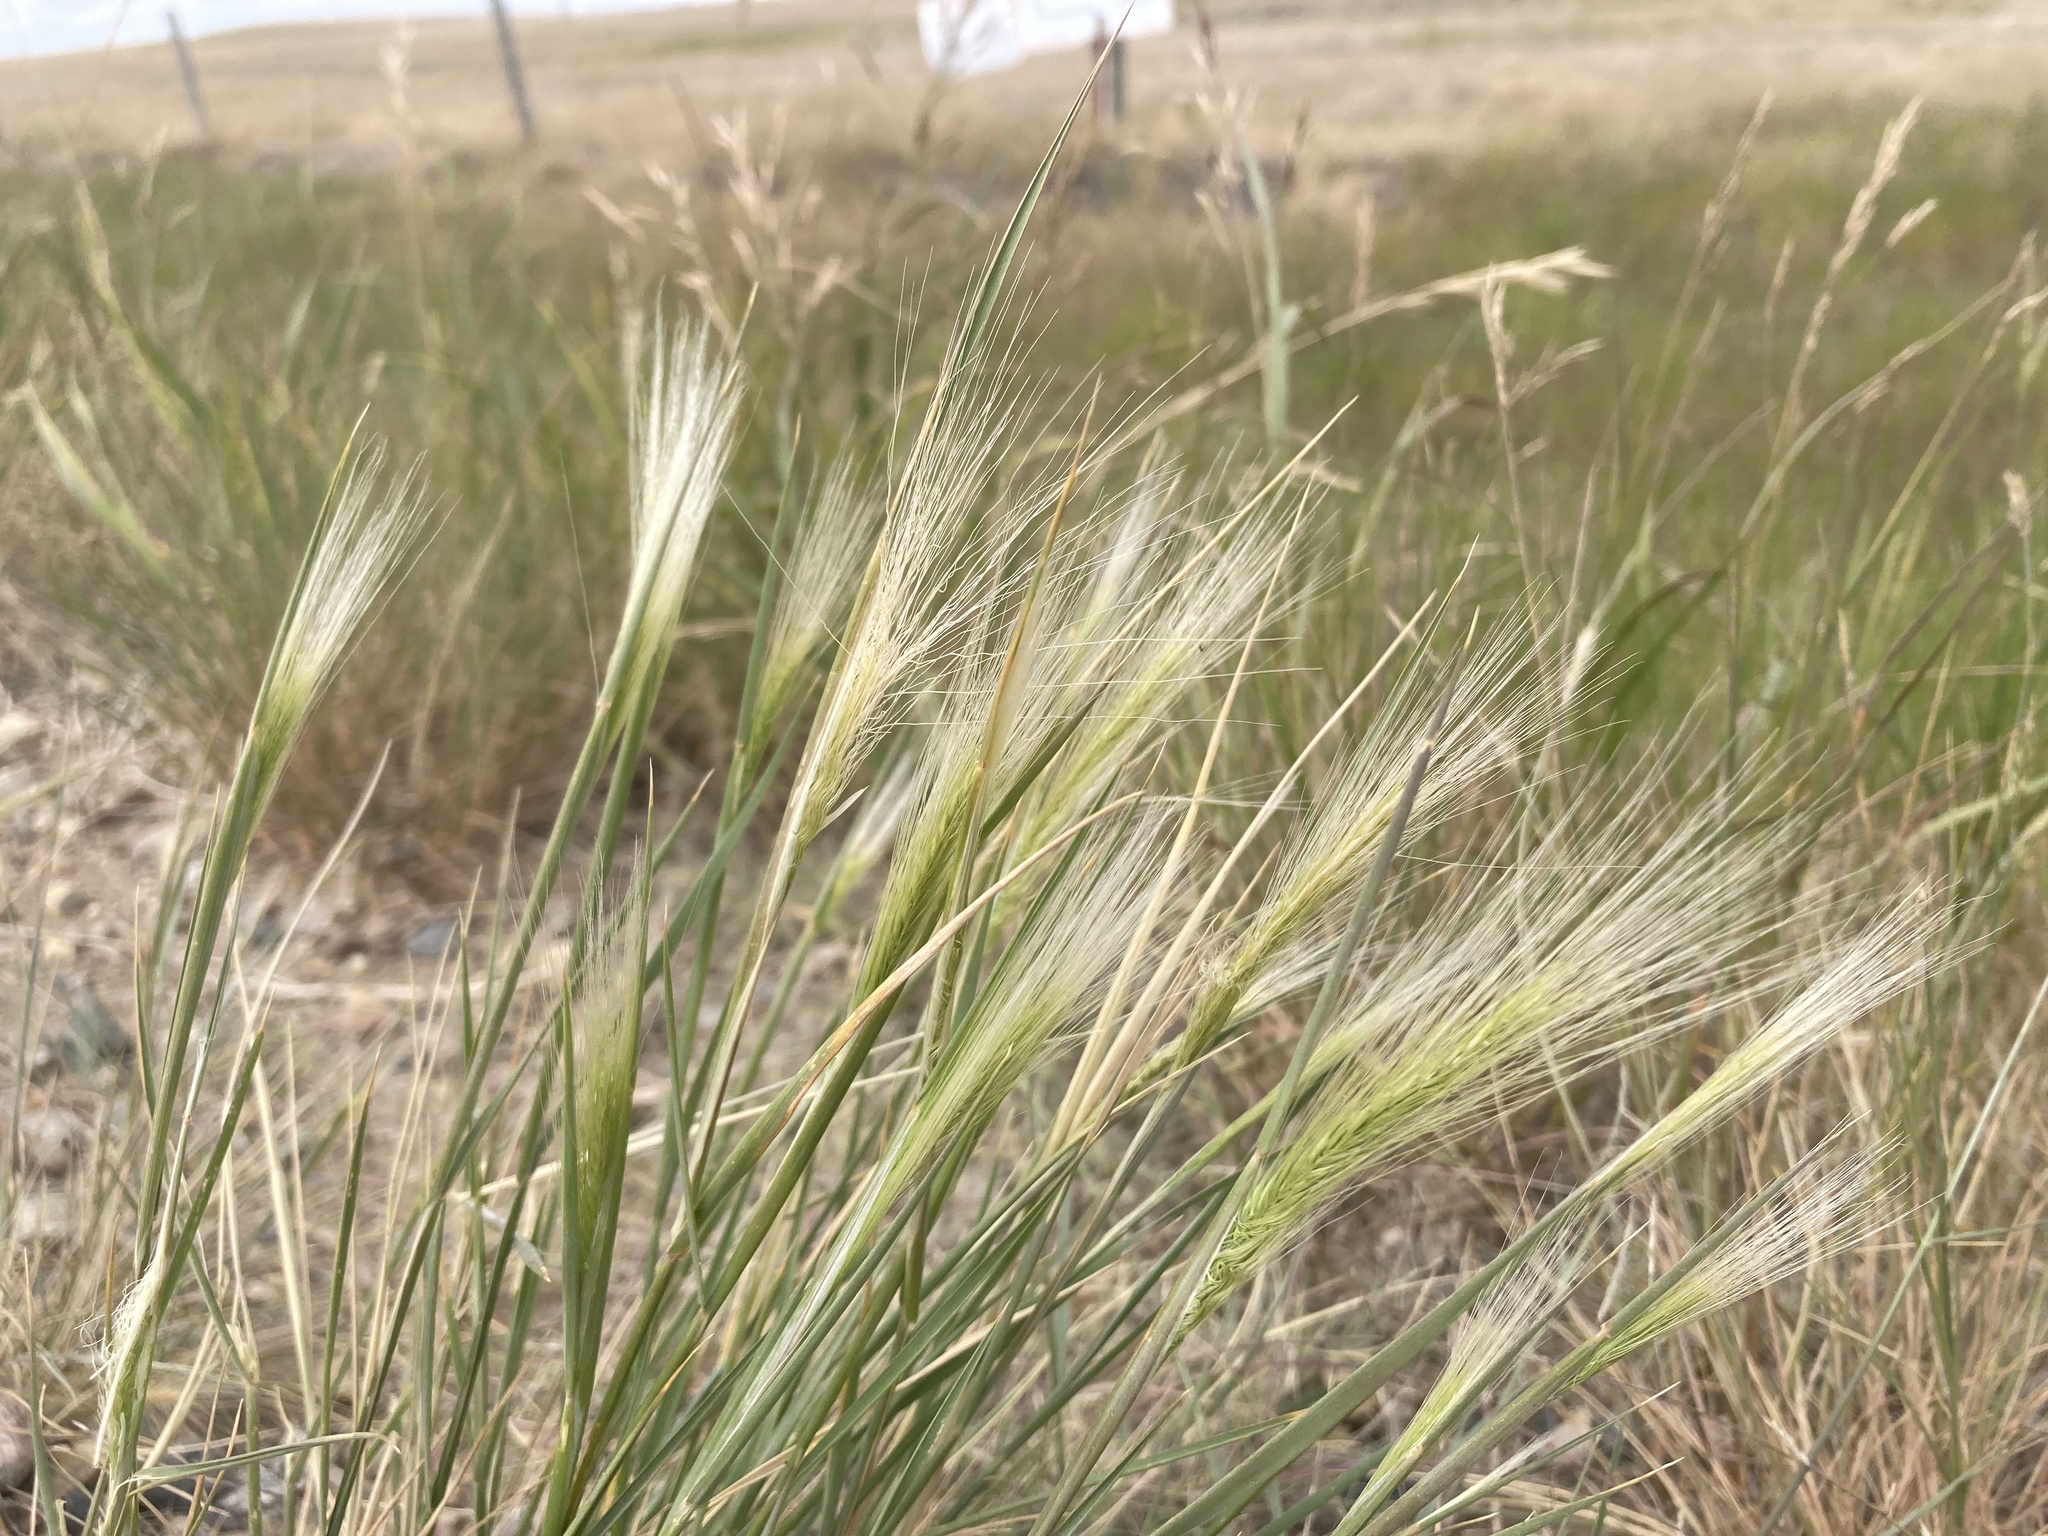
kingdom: Plantae
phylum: Tracheophyta
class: Liliopsida
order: Poales
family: Poaceae
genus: Hordeum
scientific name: Hordeum jubatum
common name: Foxtail barley
